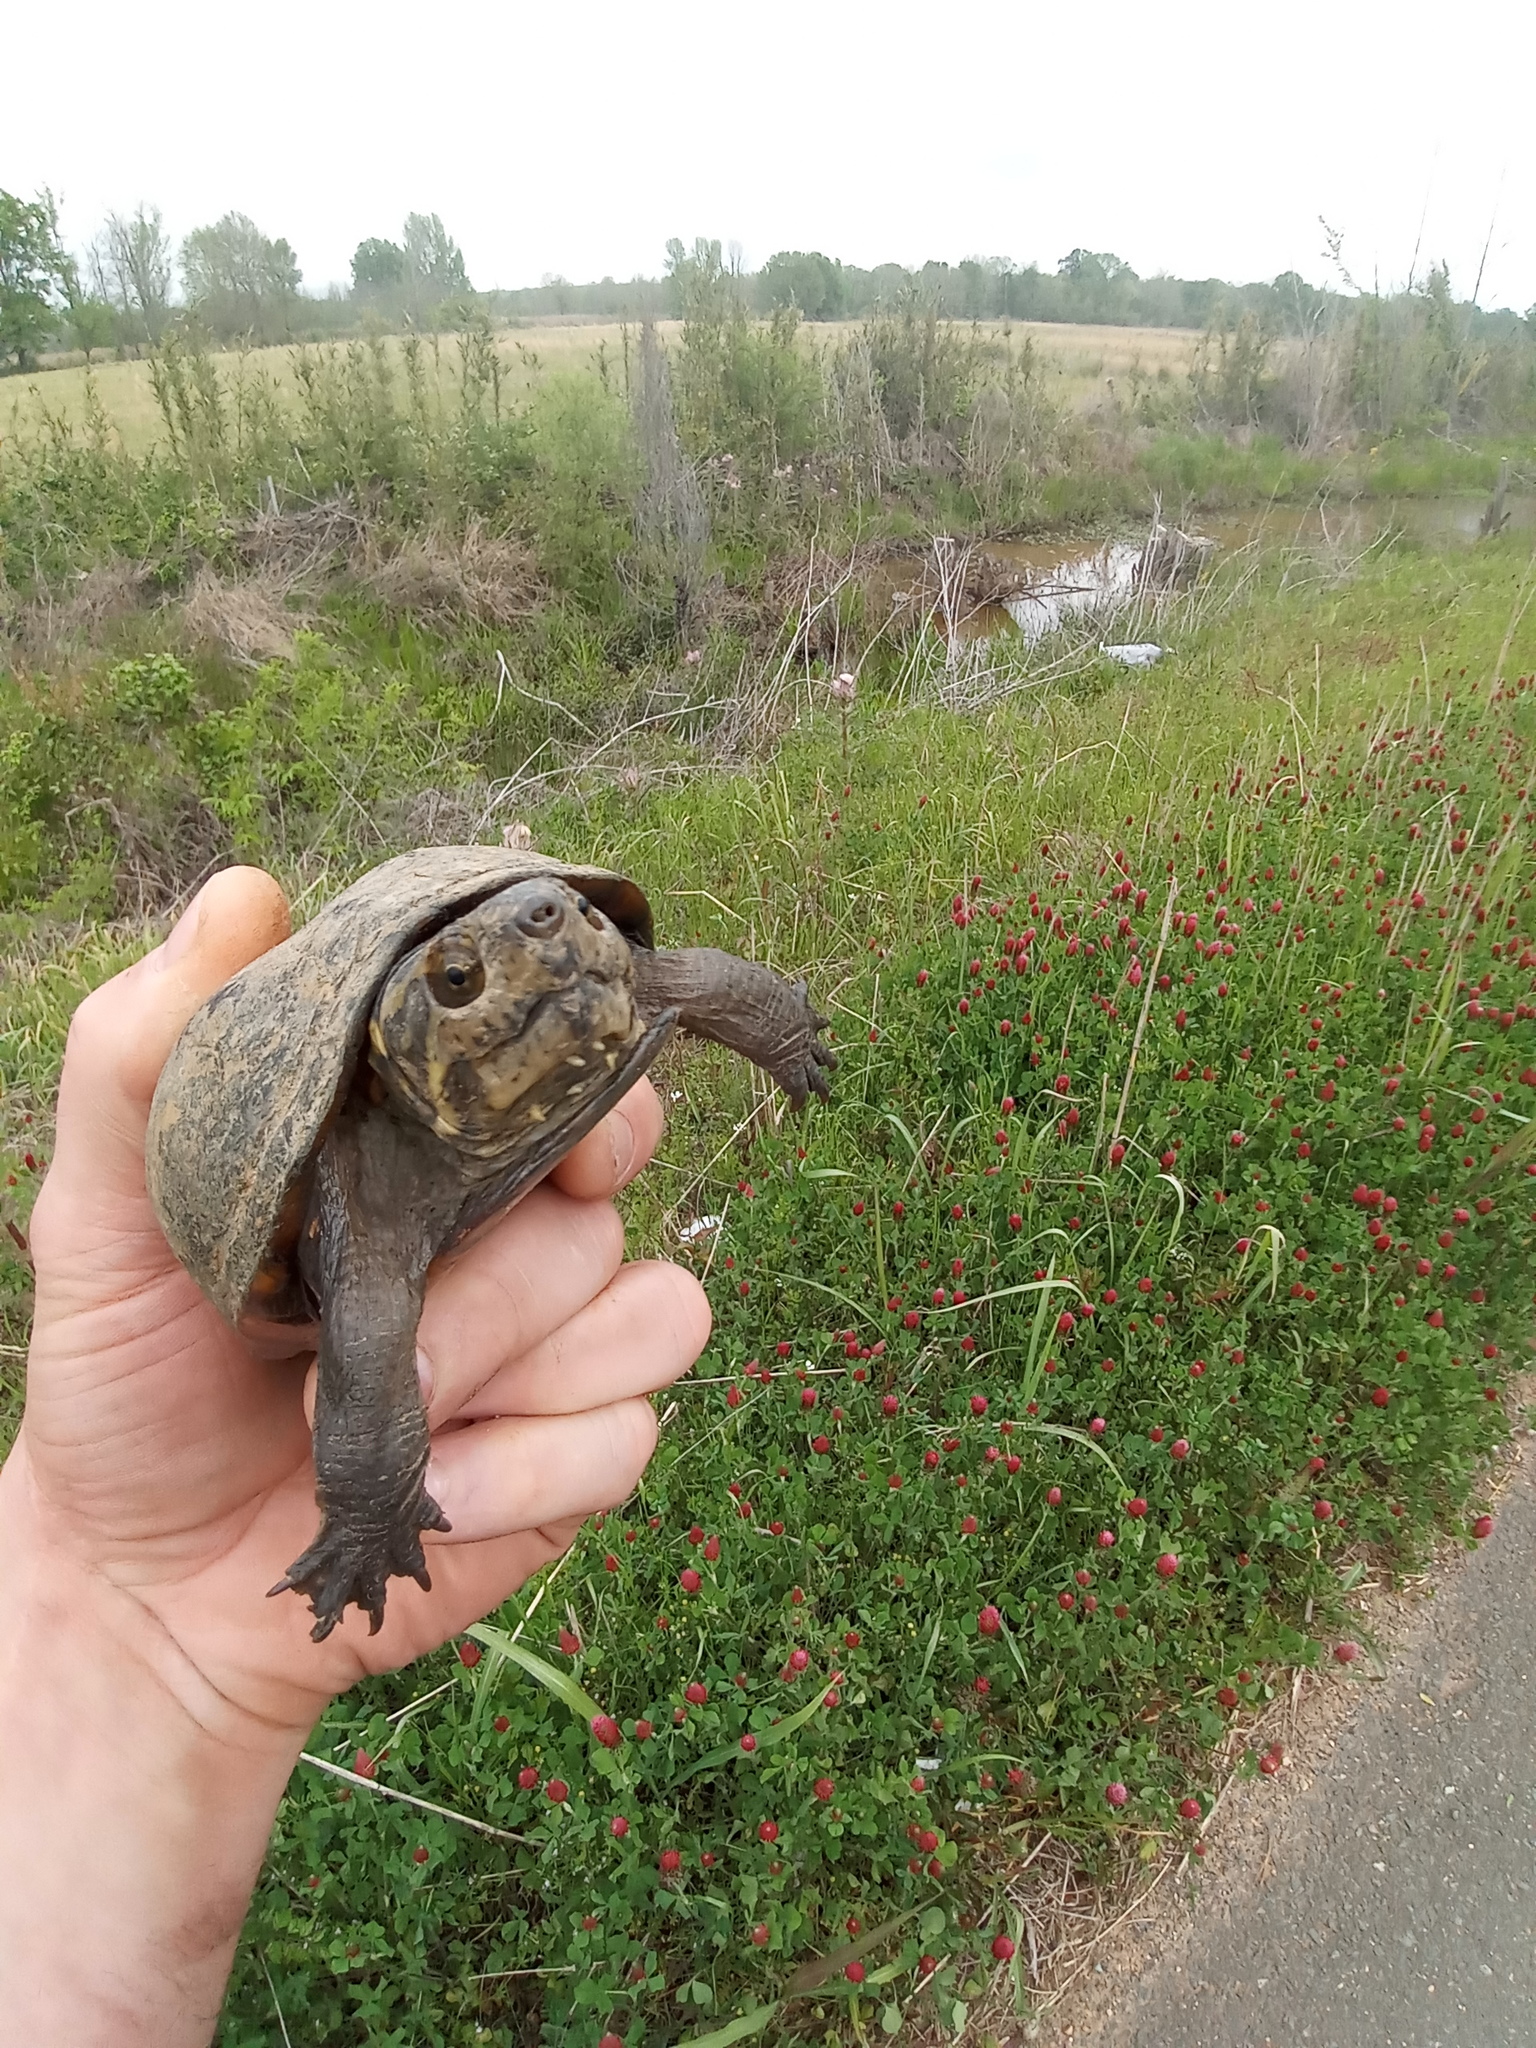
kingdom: Animalia
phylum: Chordata
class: Testudines
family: Kinosternidae
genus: Kinosternon
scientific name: Kinosternon subrubrum
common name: Eastern mud turtle
